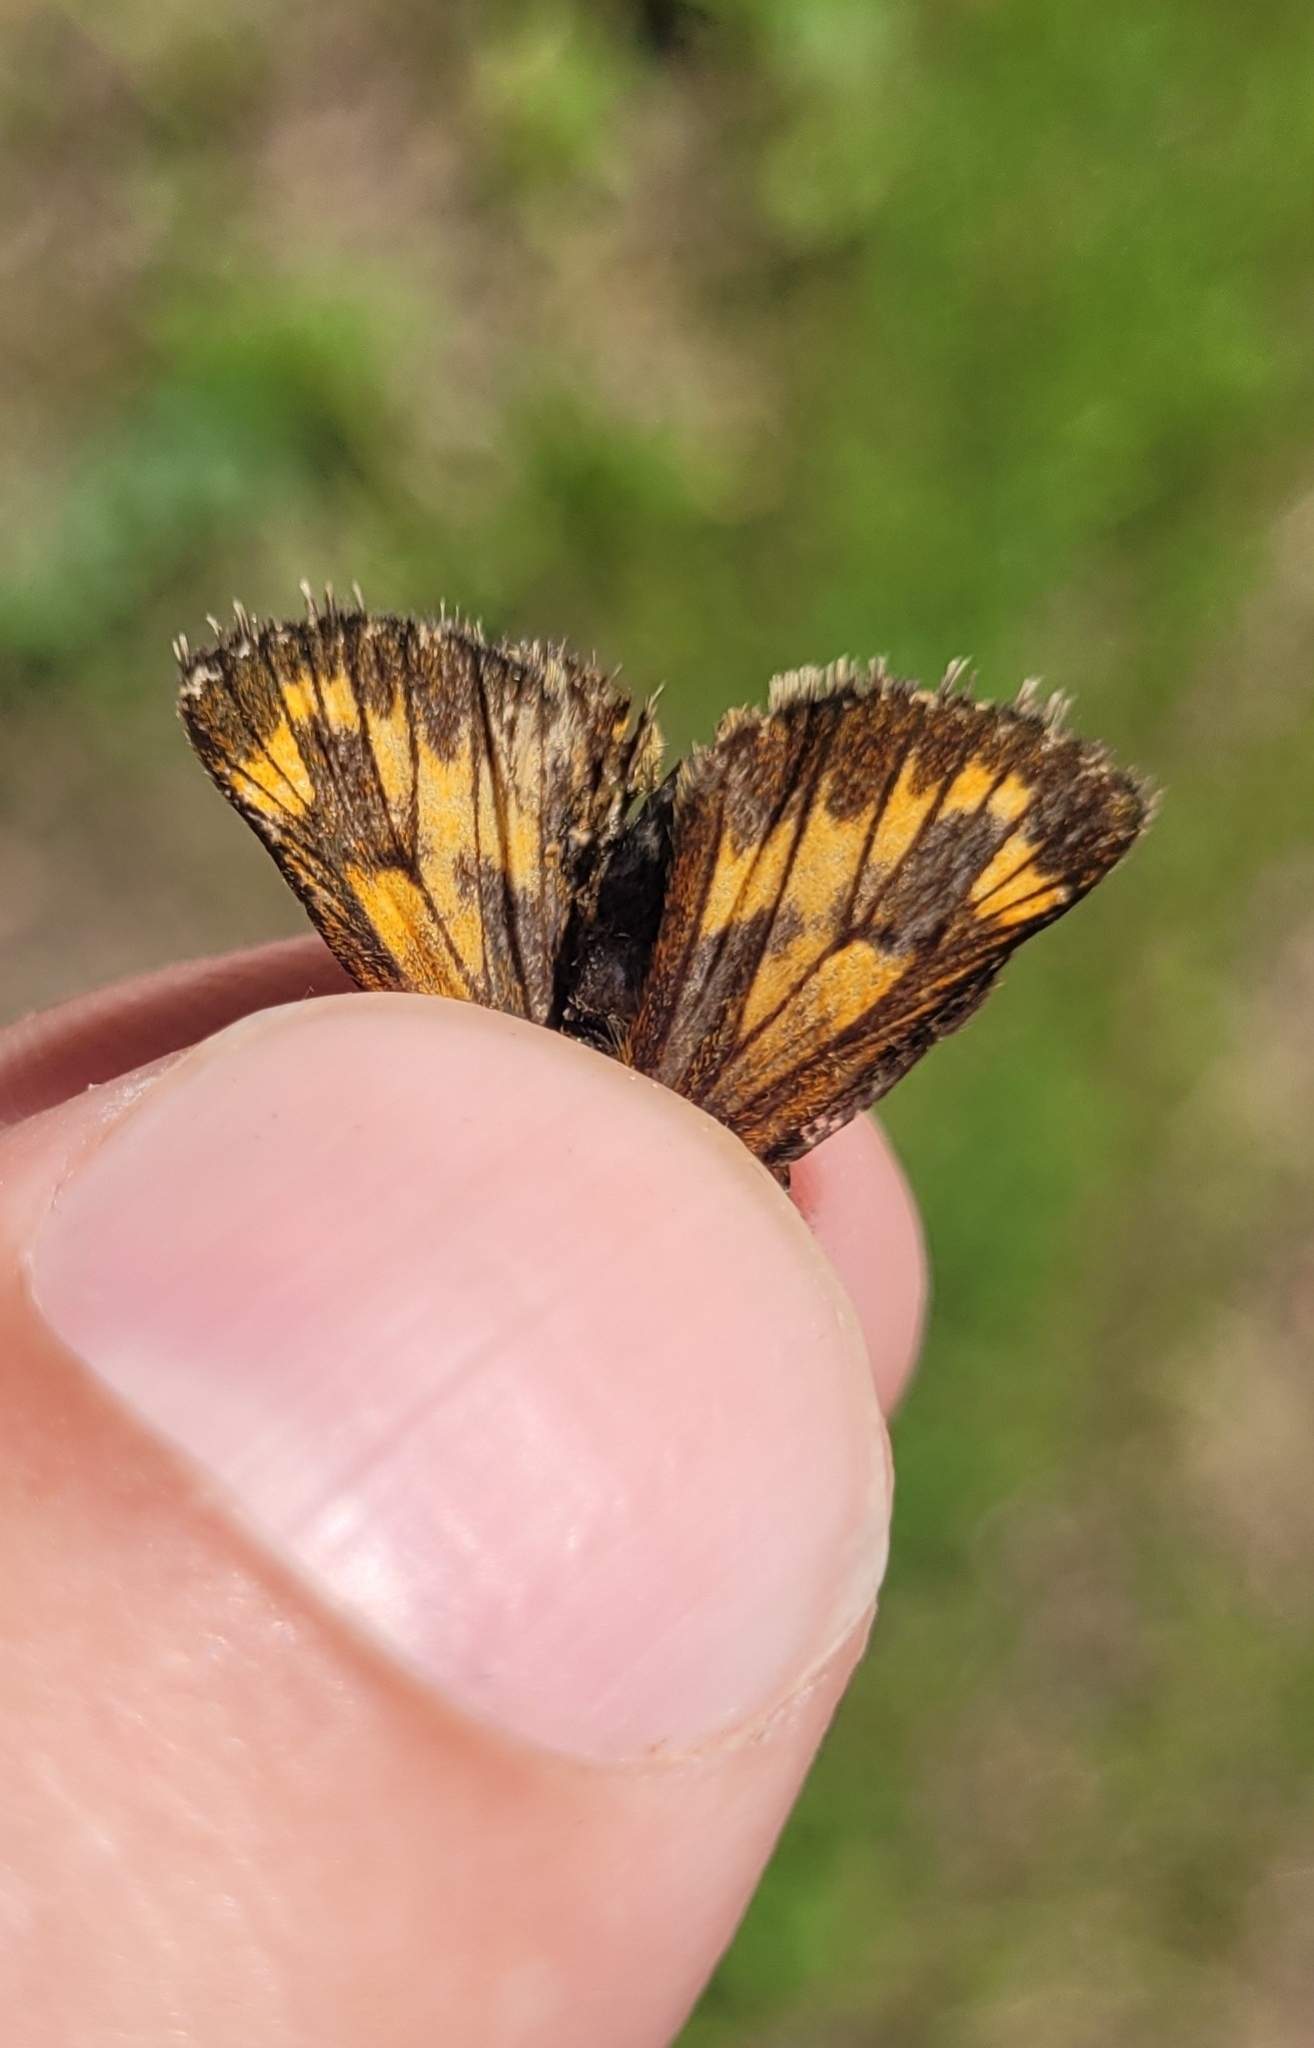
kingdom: Animalia
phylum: Arthropoda
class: Insecta
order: Lepidoptera
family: Hesperiidae
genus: Ochlodes
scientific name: Ochlodes venata
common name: Large skipper
